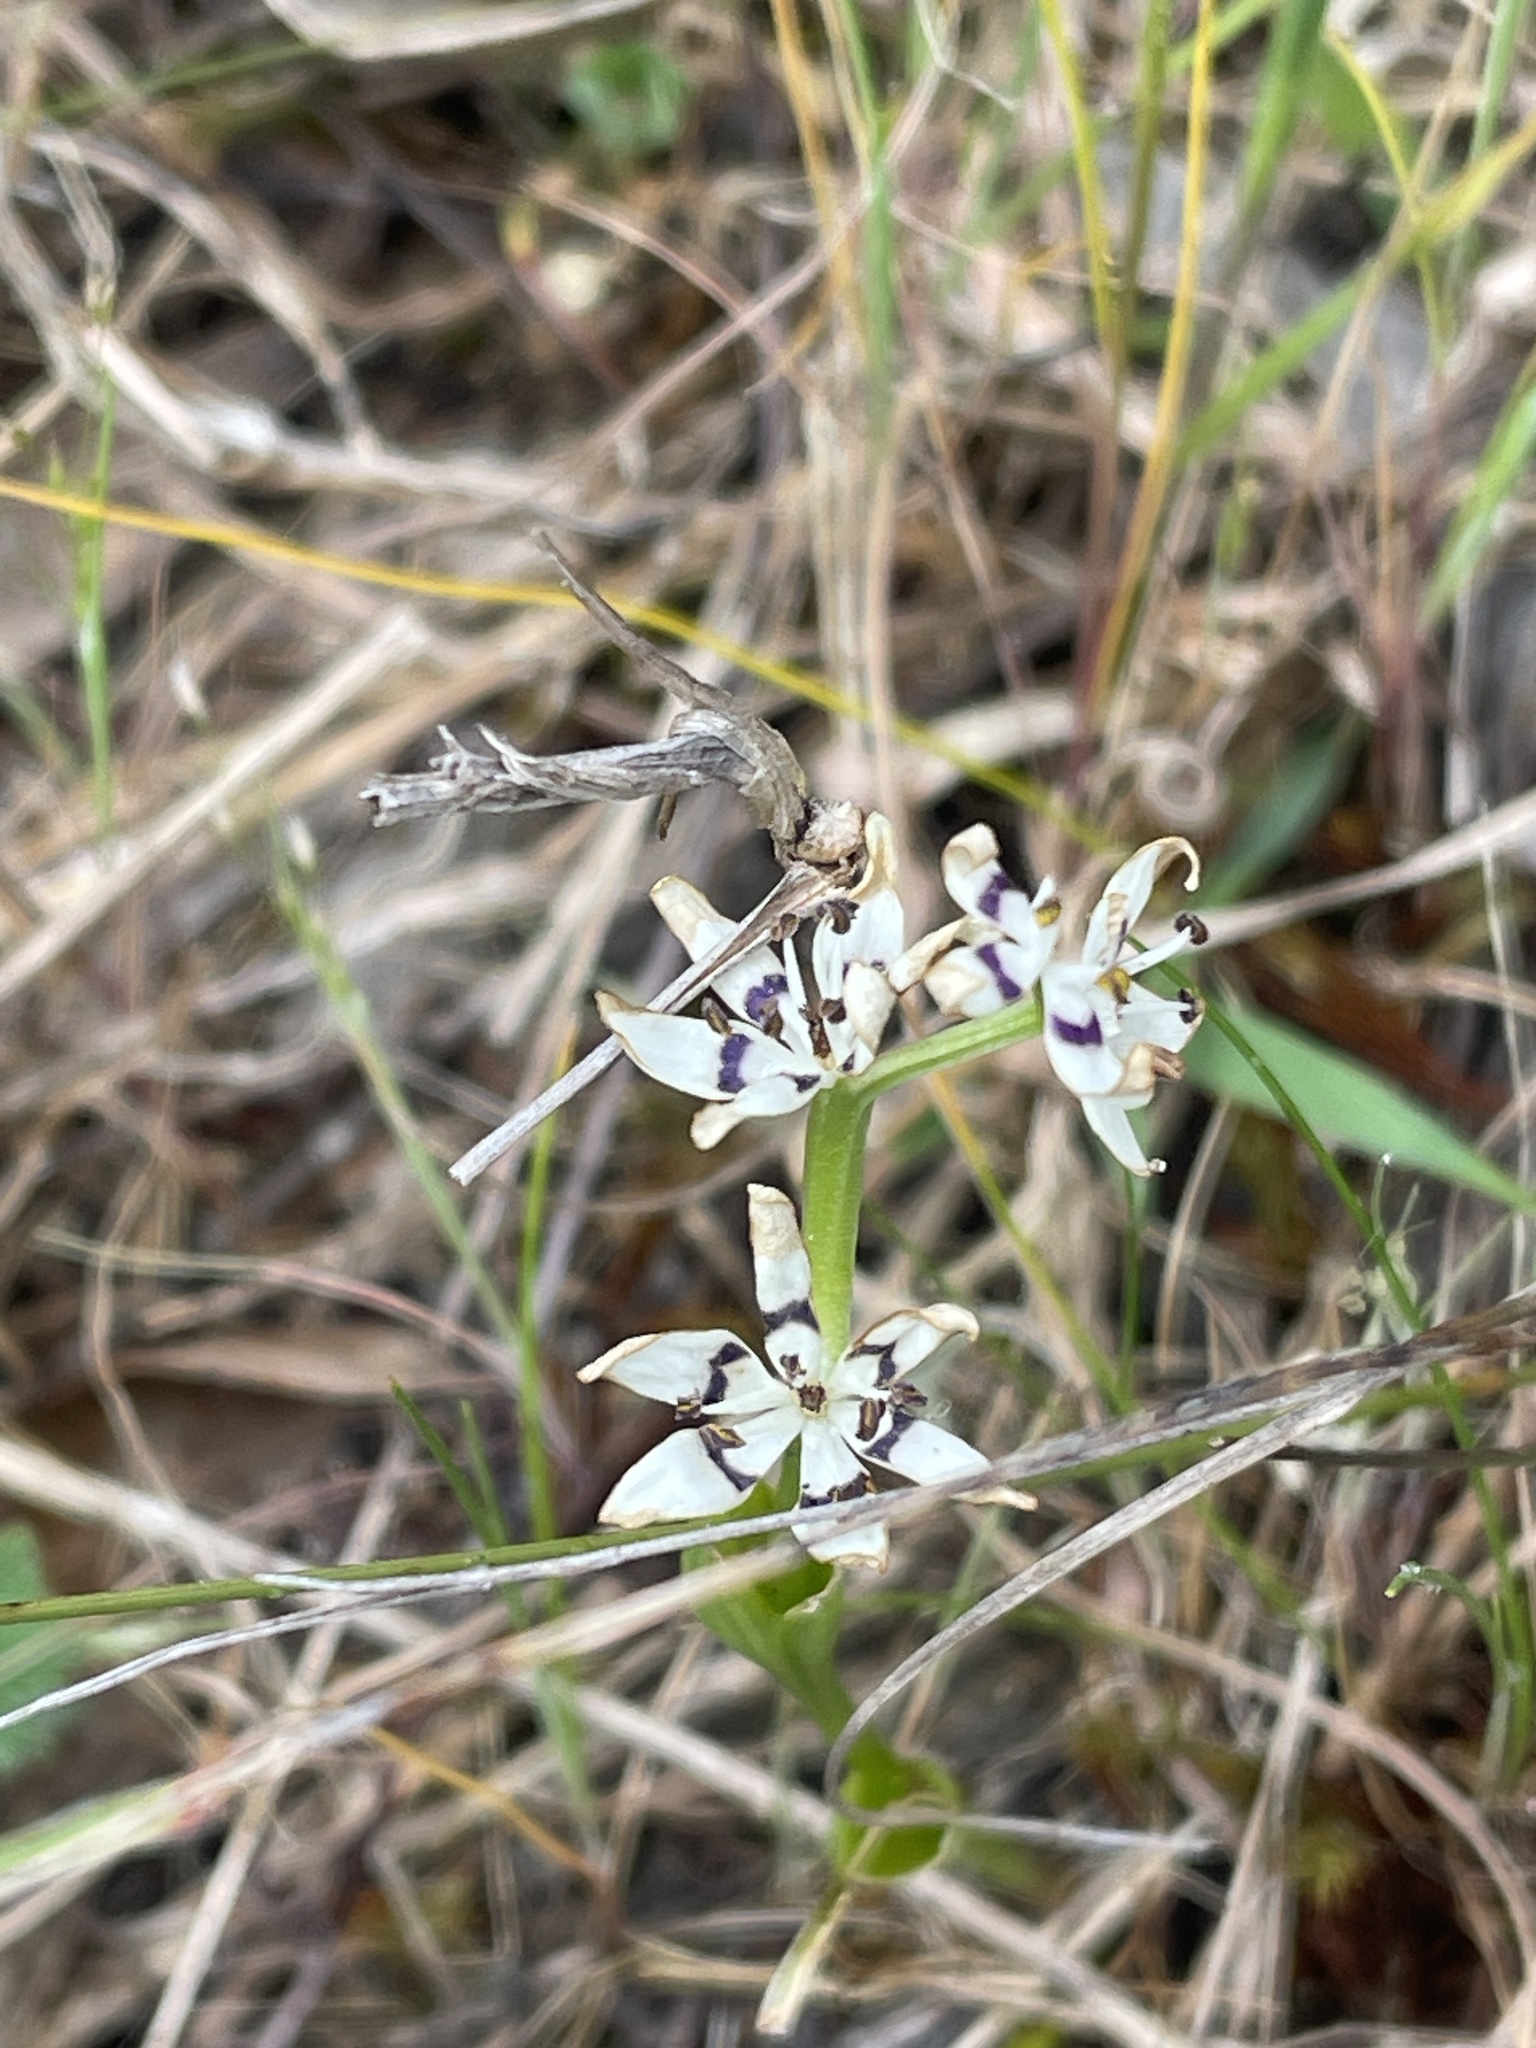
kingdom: Plantae
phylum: Tracheophyta
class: Liliopsida
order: Liliales
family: Colchicaceae
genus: Wurmbea
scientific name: Wurmbea dioica
